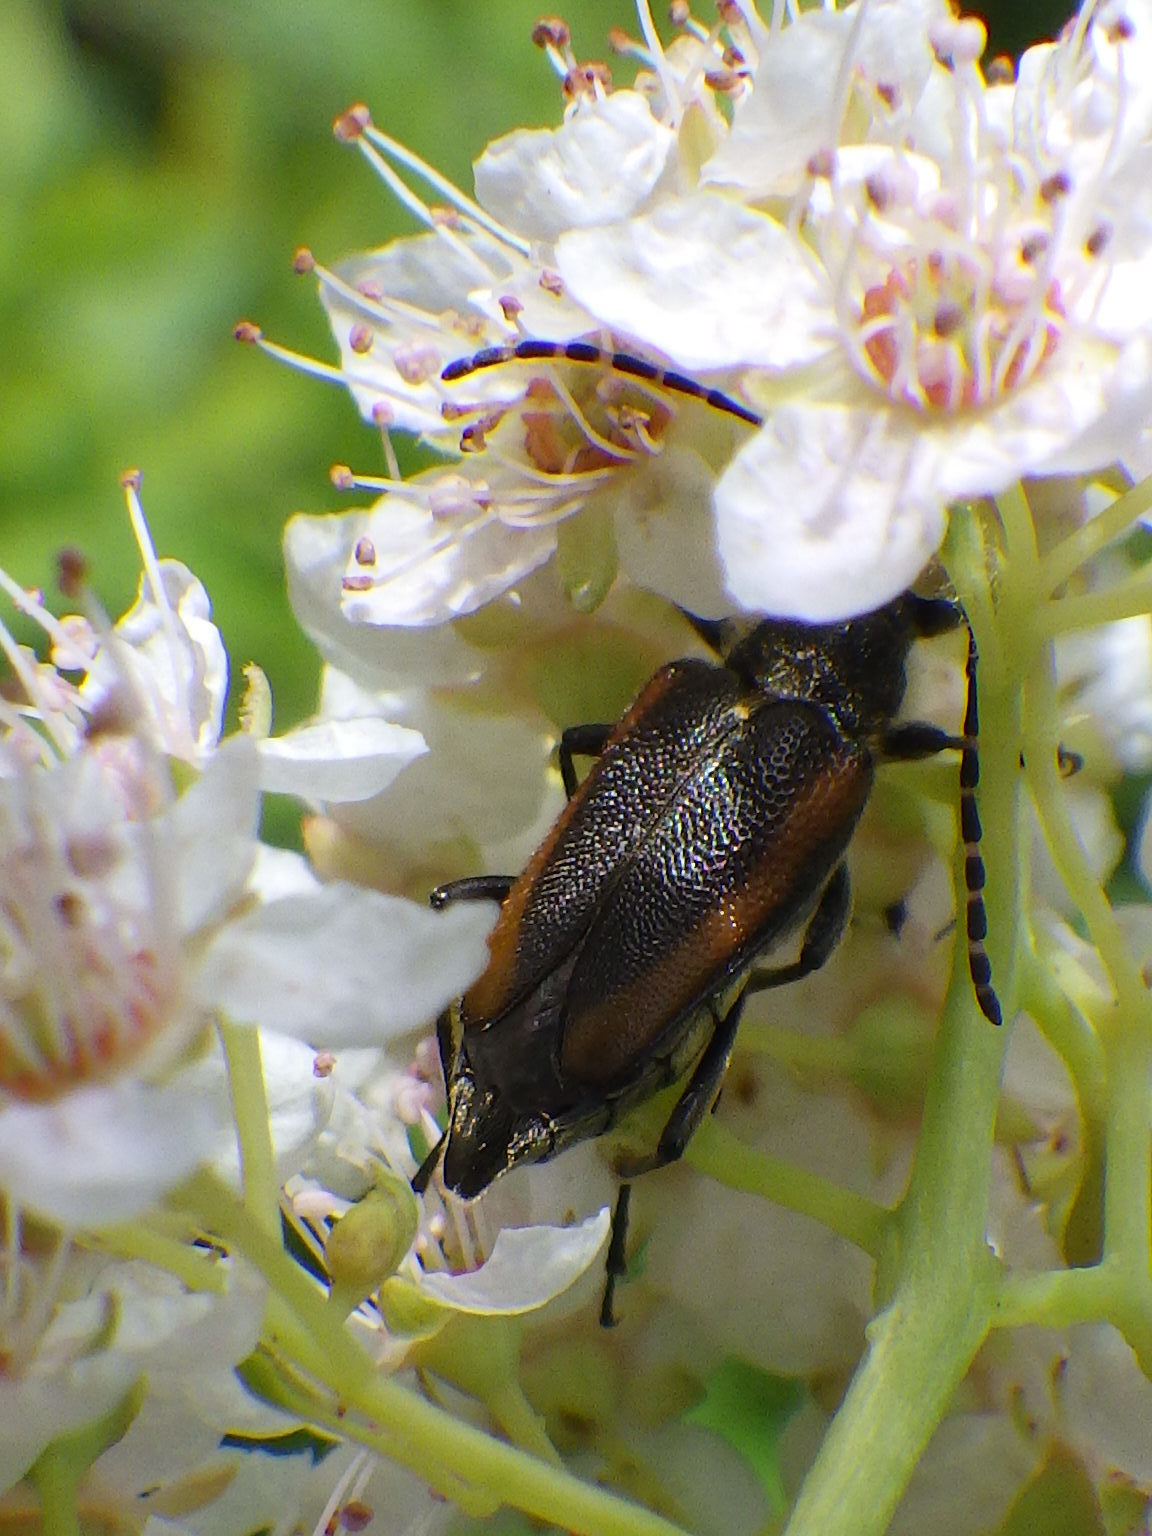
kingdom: Animalia
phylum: Arthropoda
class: Insecta
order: Coleoptera
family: Cerambycidae
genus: Brachyleptura
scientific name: Brachyleptura vagans
